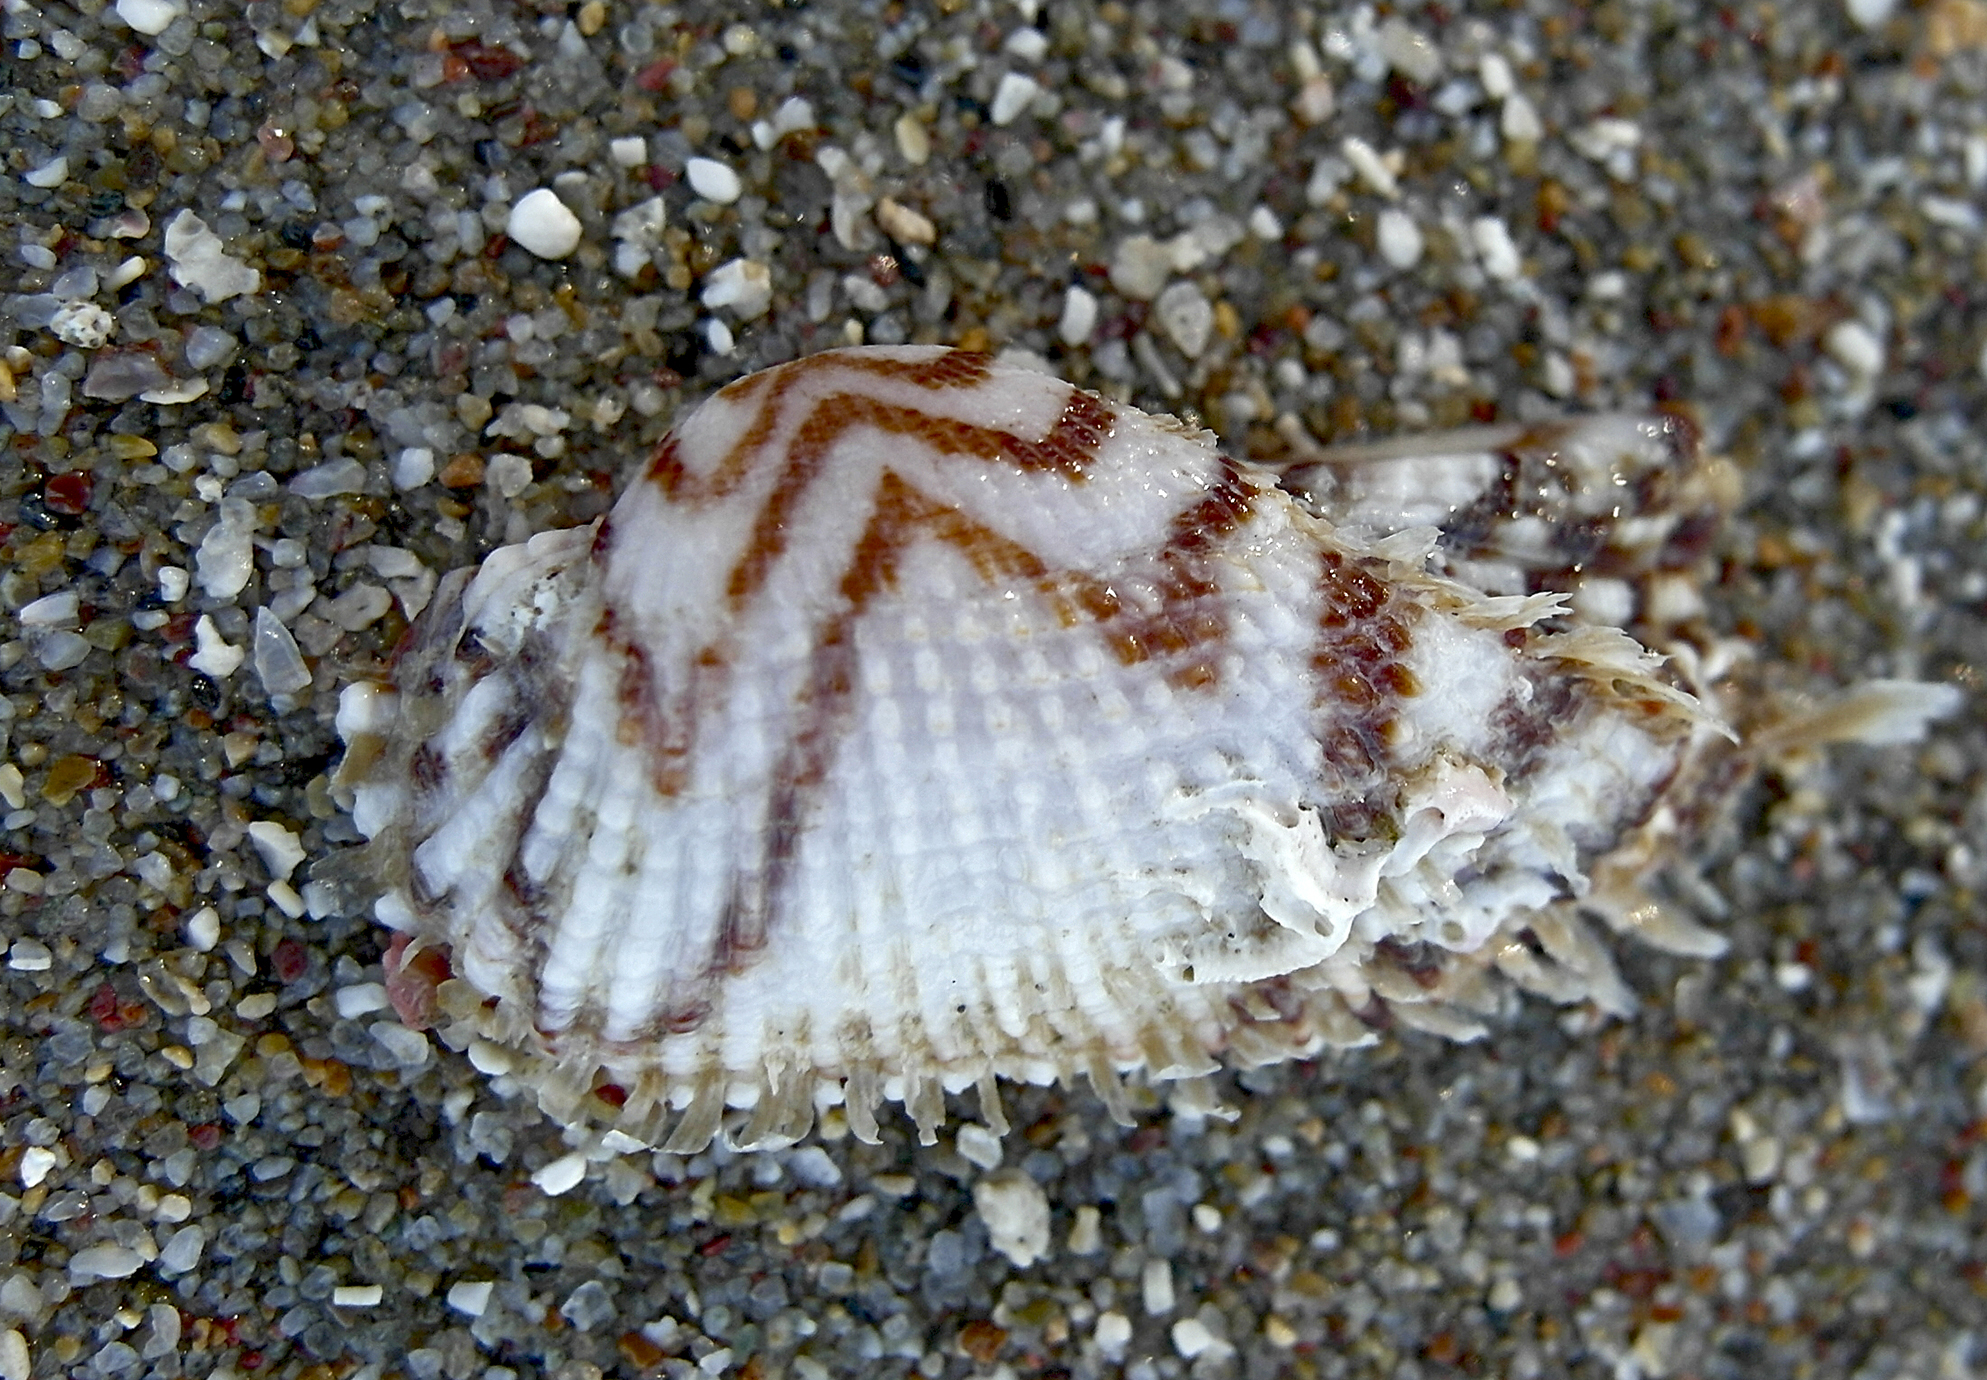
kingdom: Animalia
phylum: Mollusca
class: Bivalvia
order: Arcida
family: Arcidae
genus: Arca
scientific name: Arca noae
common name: Noah's arch
